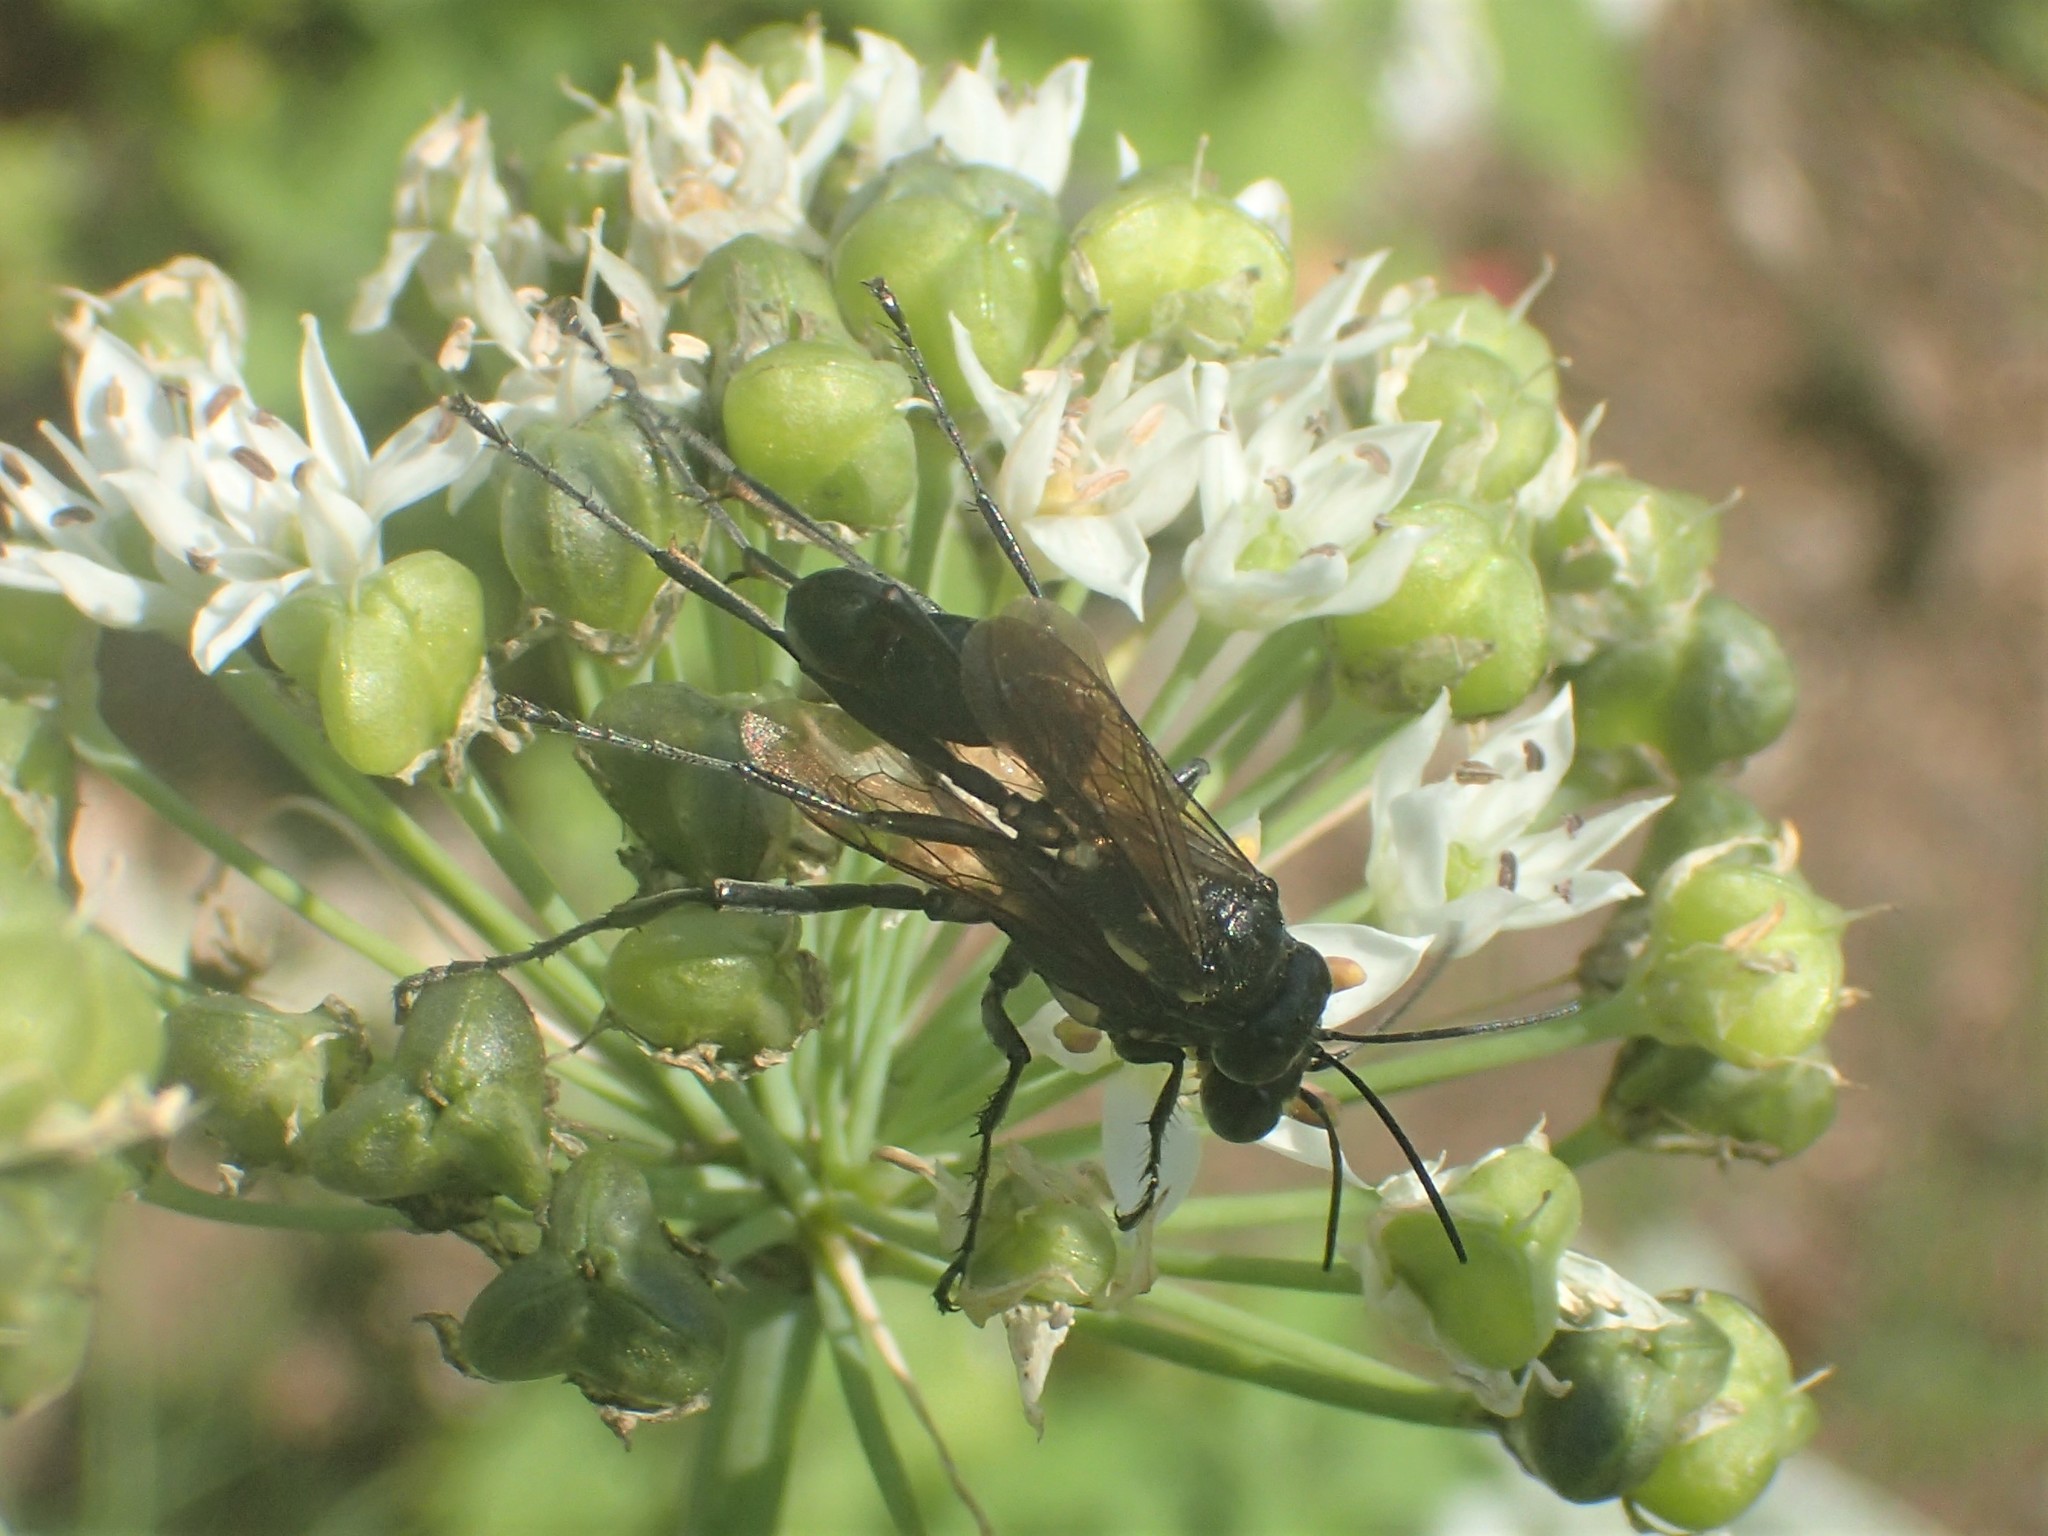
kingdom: Animalia
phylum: Arthropoda
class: Insecta
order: Hymenoptera
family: Sphecidae
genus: Eremnophila
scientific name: Eremnophila aureonotata
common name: Gold-marked thread-waisted wasp
